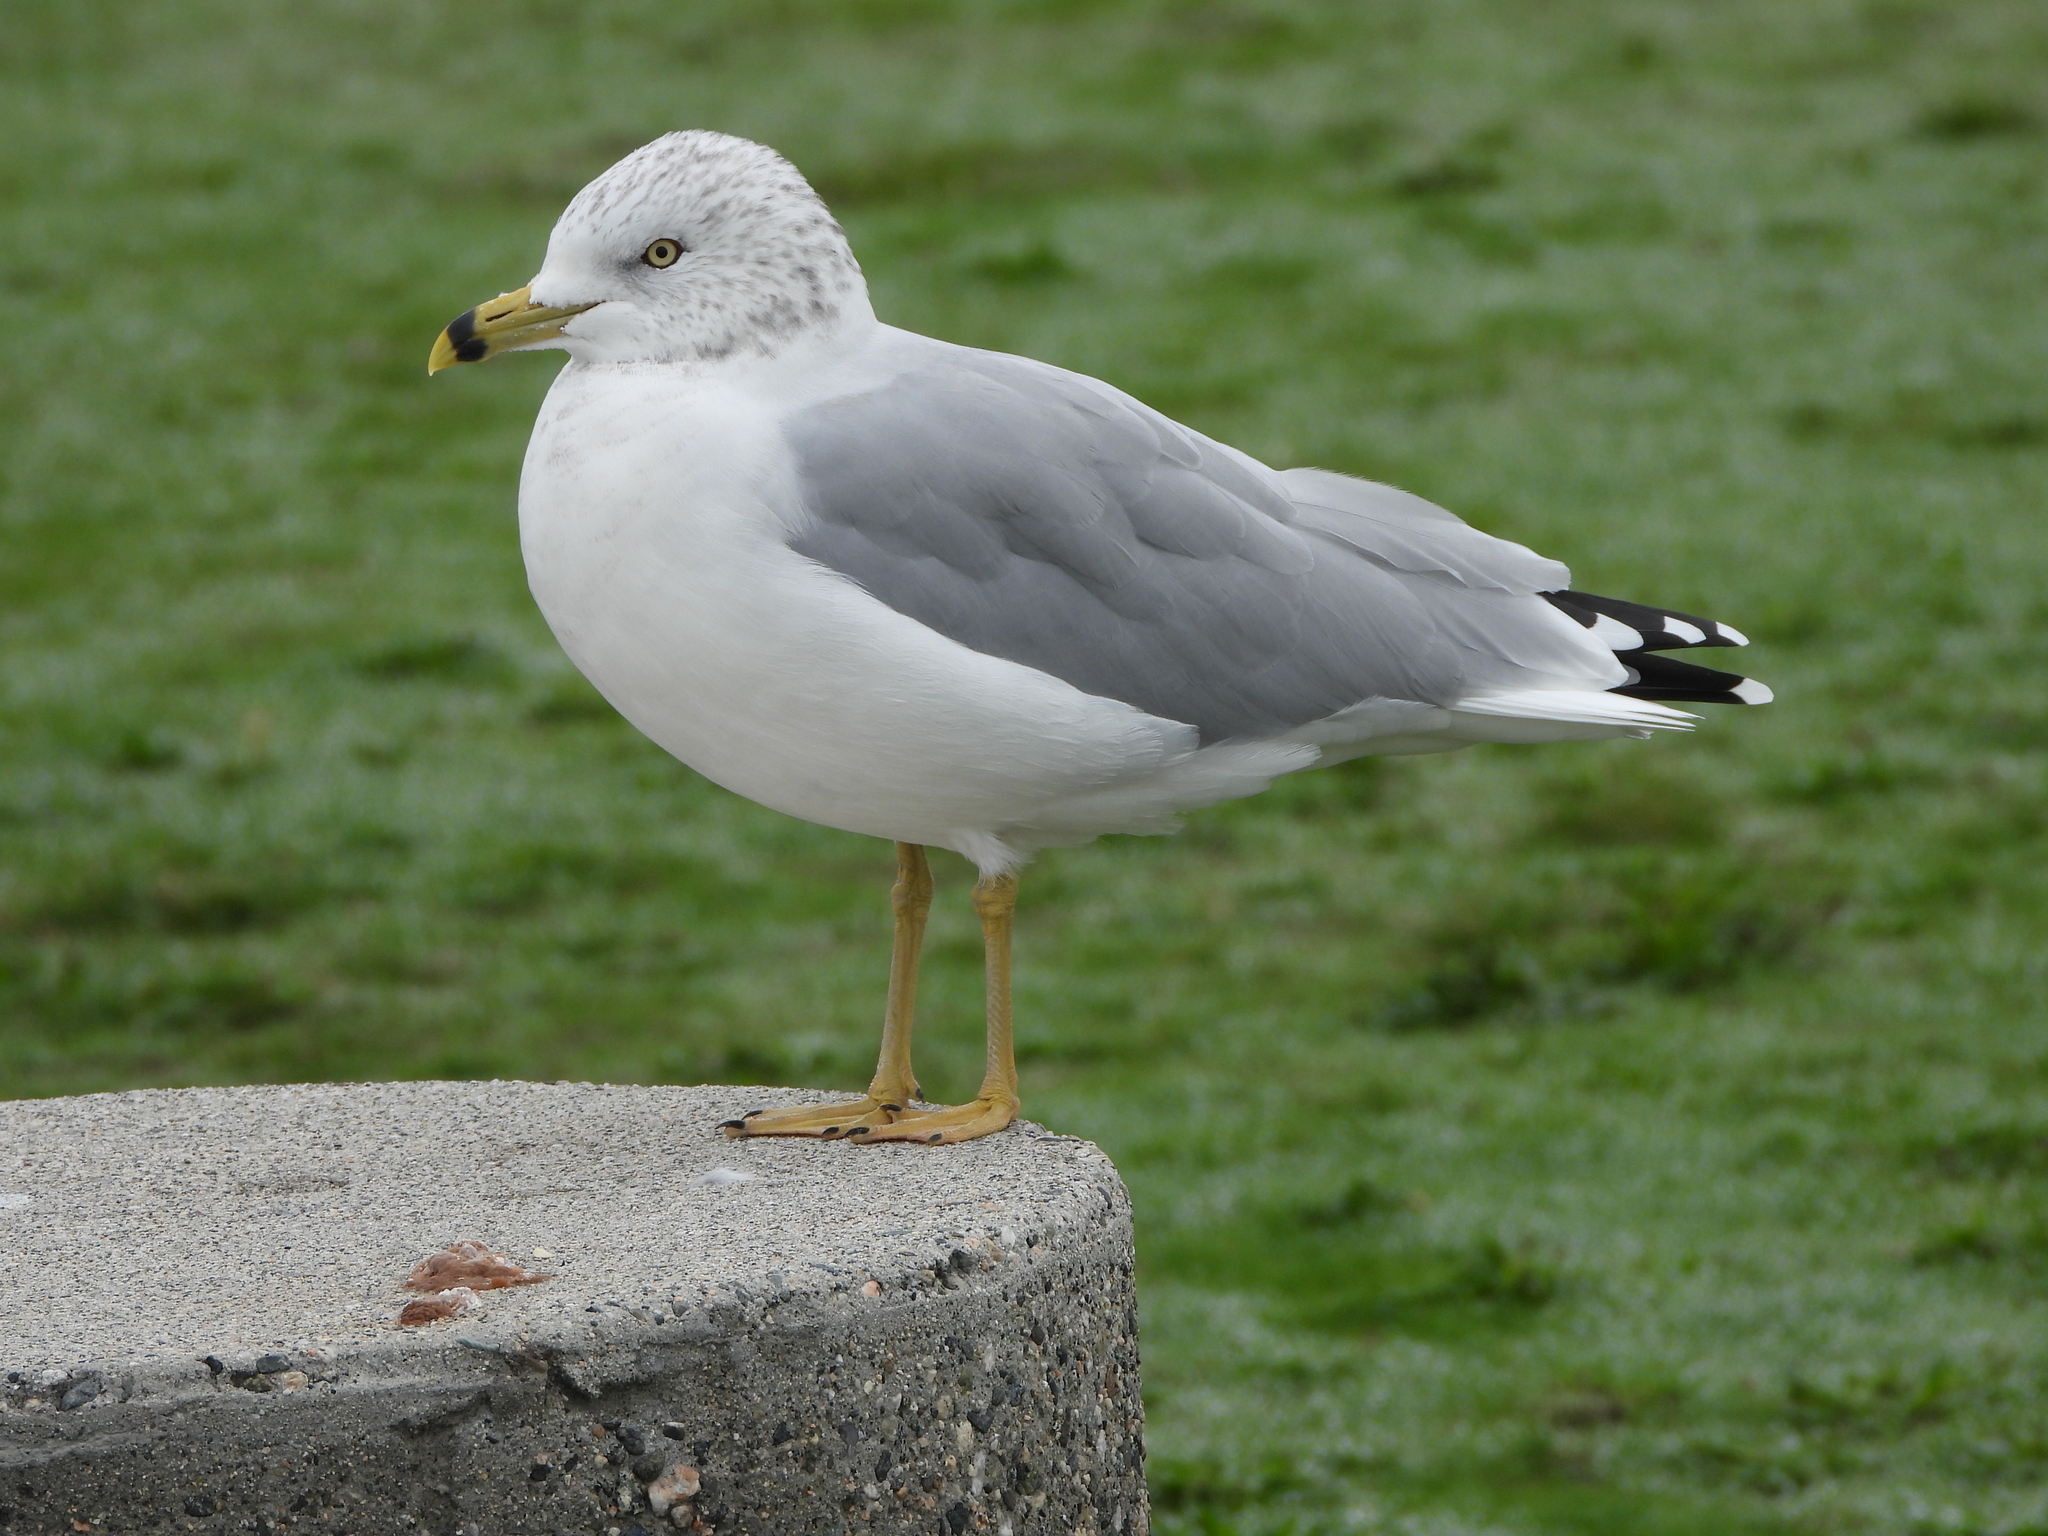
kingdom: Animalia
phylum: Chordata
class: Aves
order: Charadriiformes
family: Laridae
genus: Larus
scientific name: Larus delawarensis
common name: Ring-billed gull
